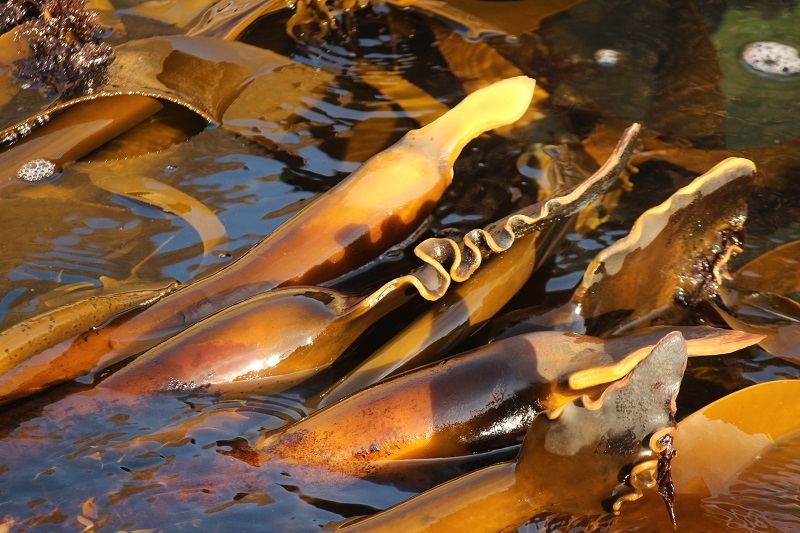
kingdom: Chromista
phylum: Ochrophyta
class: Phaeophyceae
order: Laminariales
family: Lessoniaceae
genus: Ecklonia
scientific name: Ecklonia
